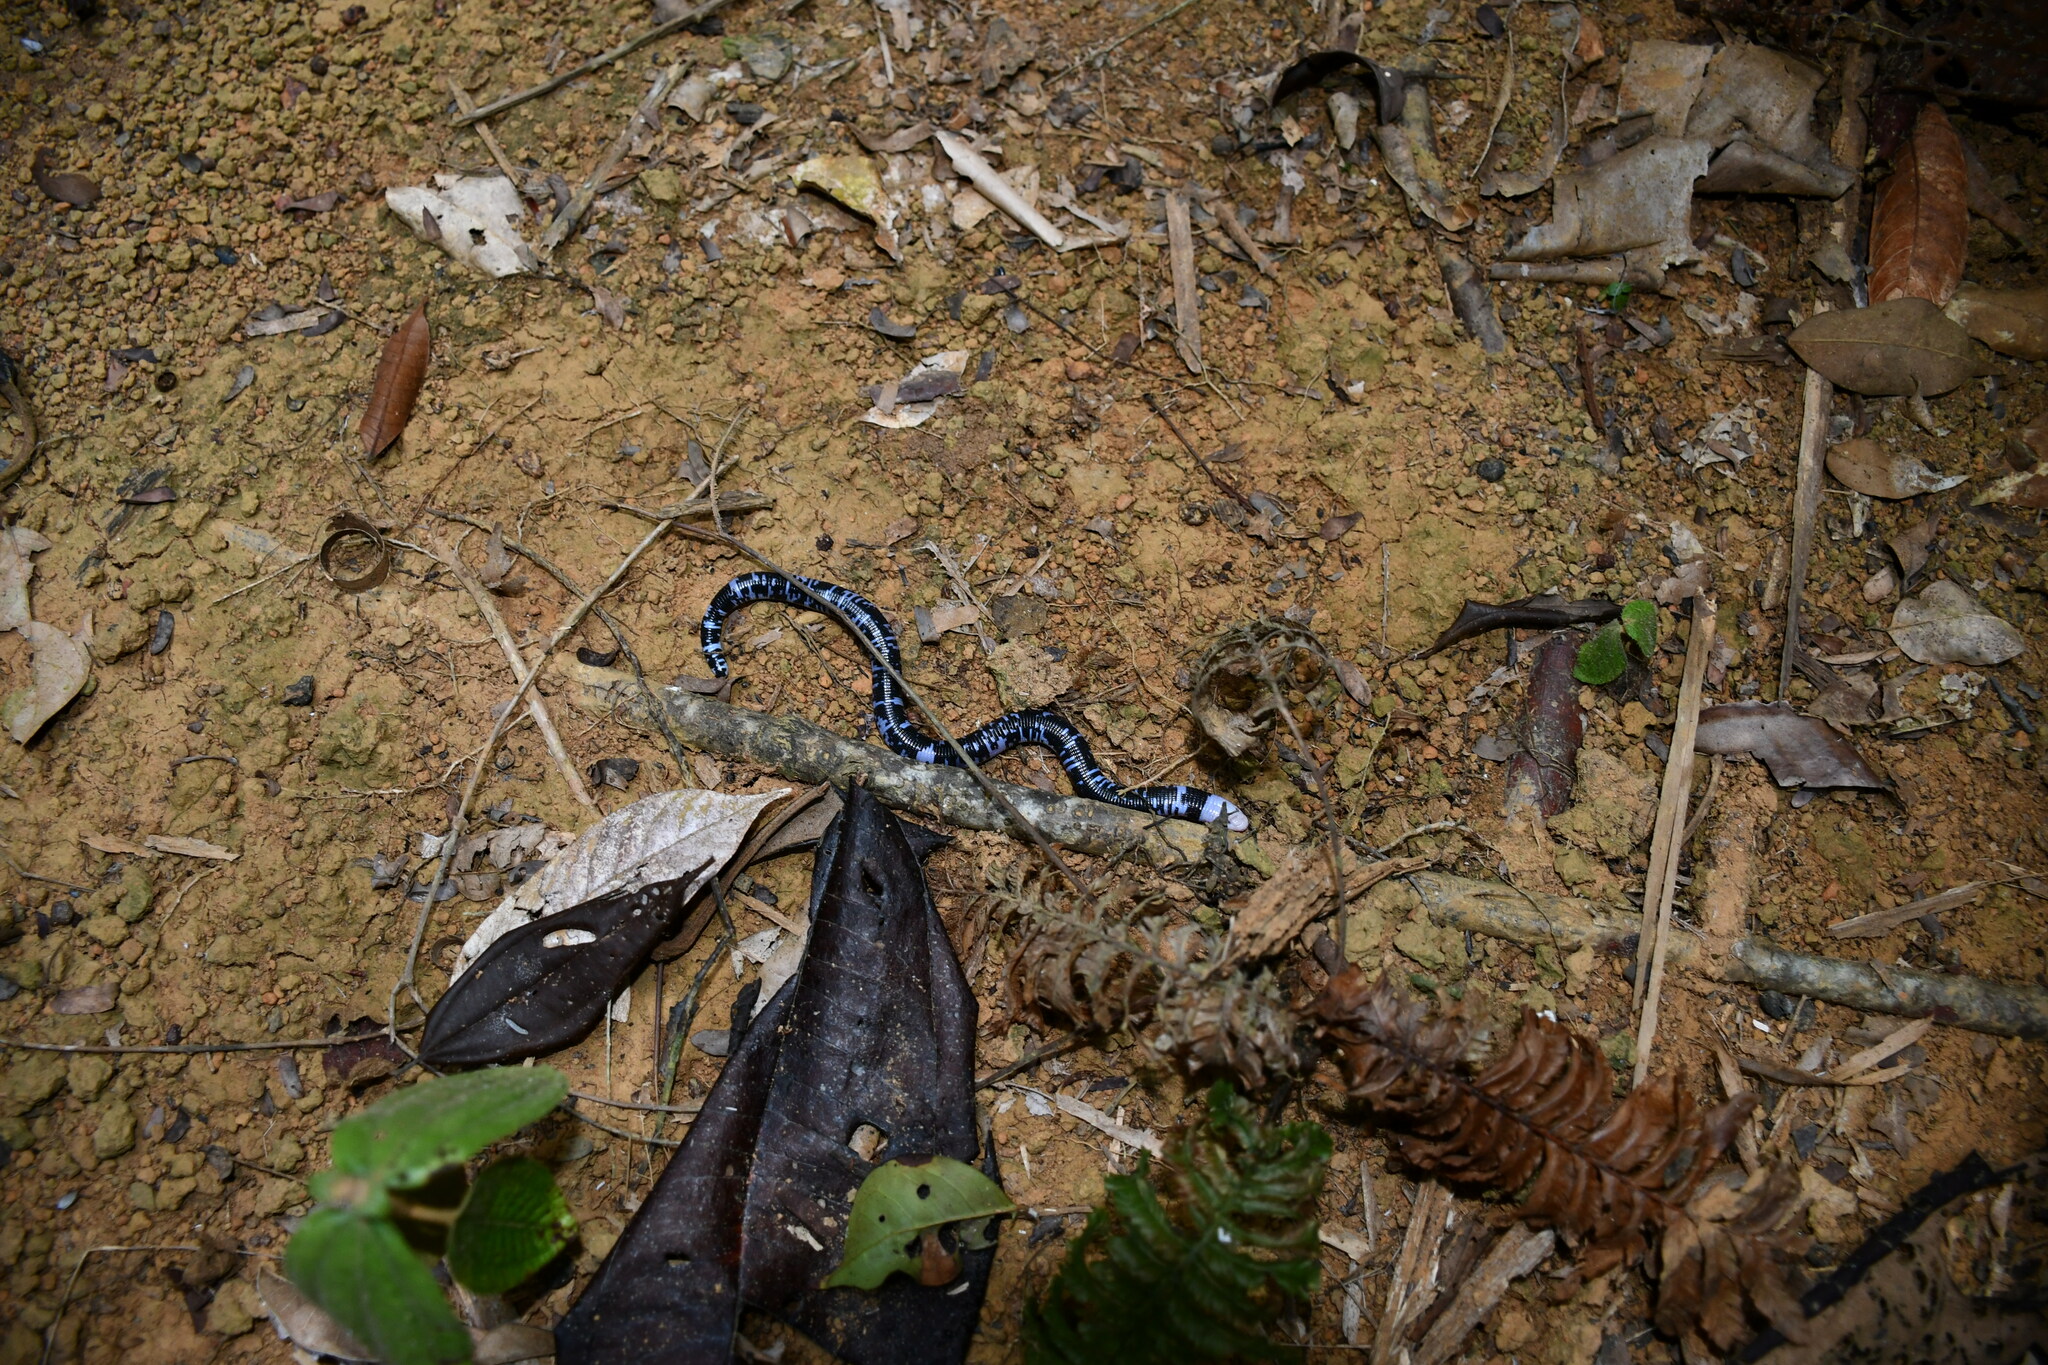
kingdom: Animalia
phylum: Chordata
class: Squamata
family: Amphisbaenidae
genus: Amphisbaena
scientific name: Amphisbaena fuliginosa
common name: Speckled worm lizard
